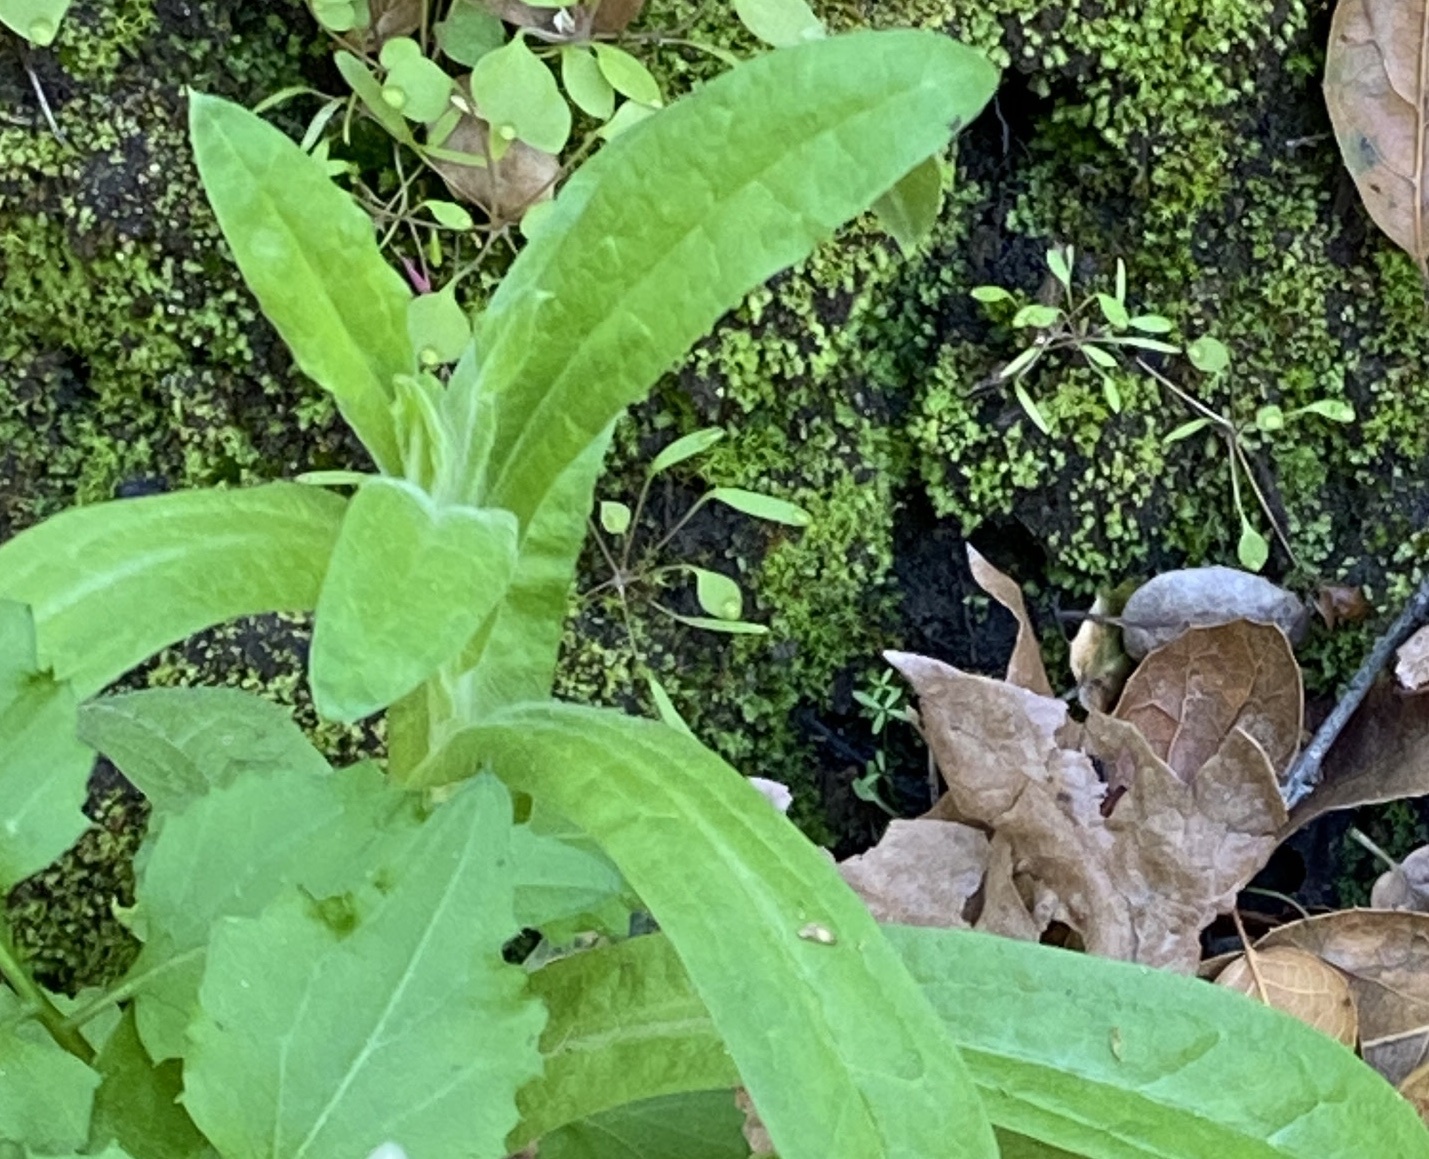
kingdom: Plantae
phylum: Tracheophyta
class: Magnoliopsida
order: Asterales
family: Asteraceae
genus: Pseudognaphalium
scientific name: Pseudognaphalium californicum
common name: California rabbit-tobacco
